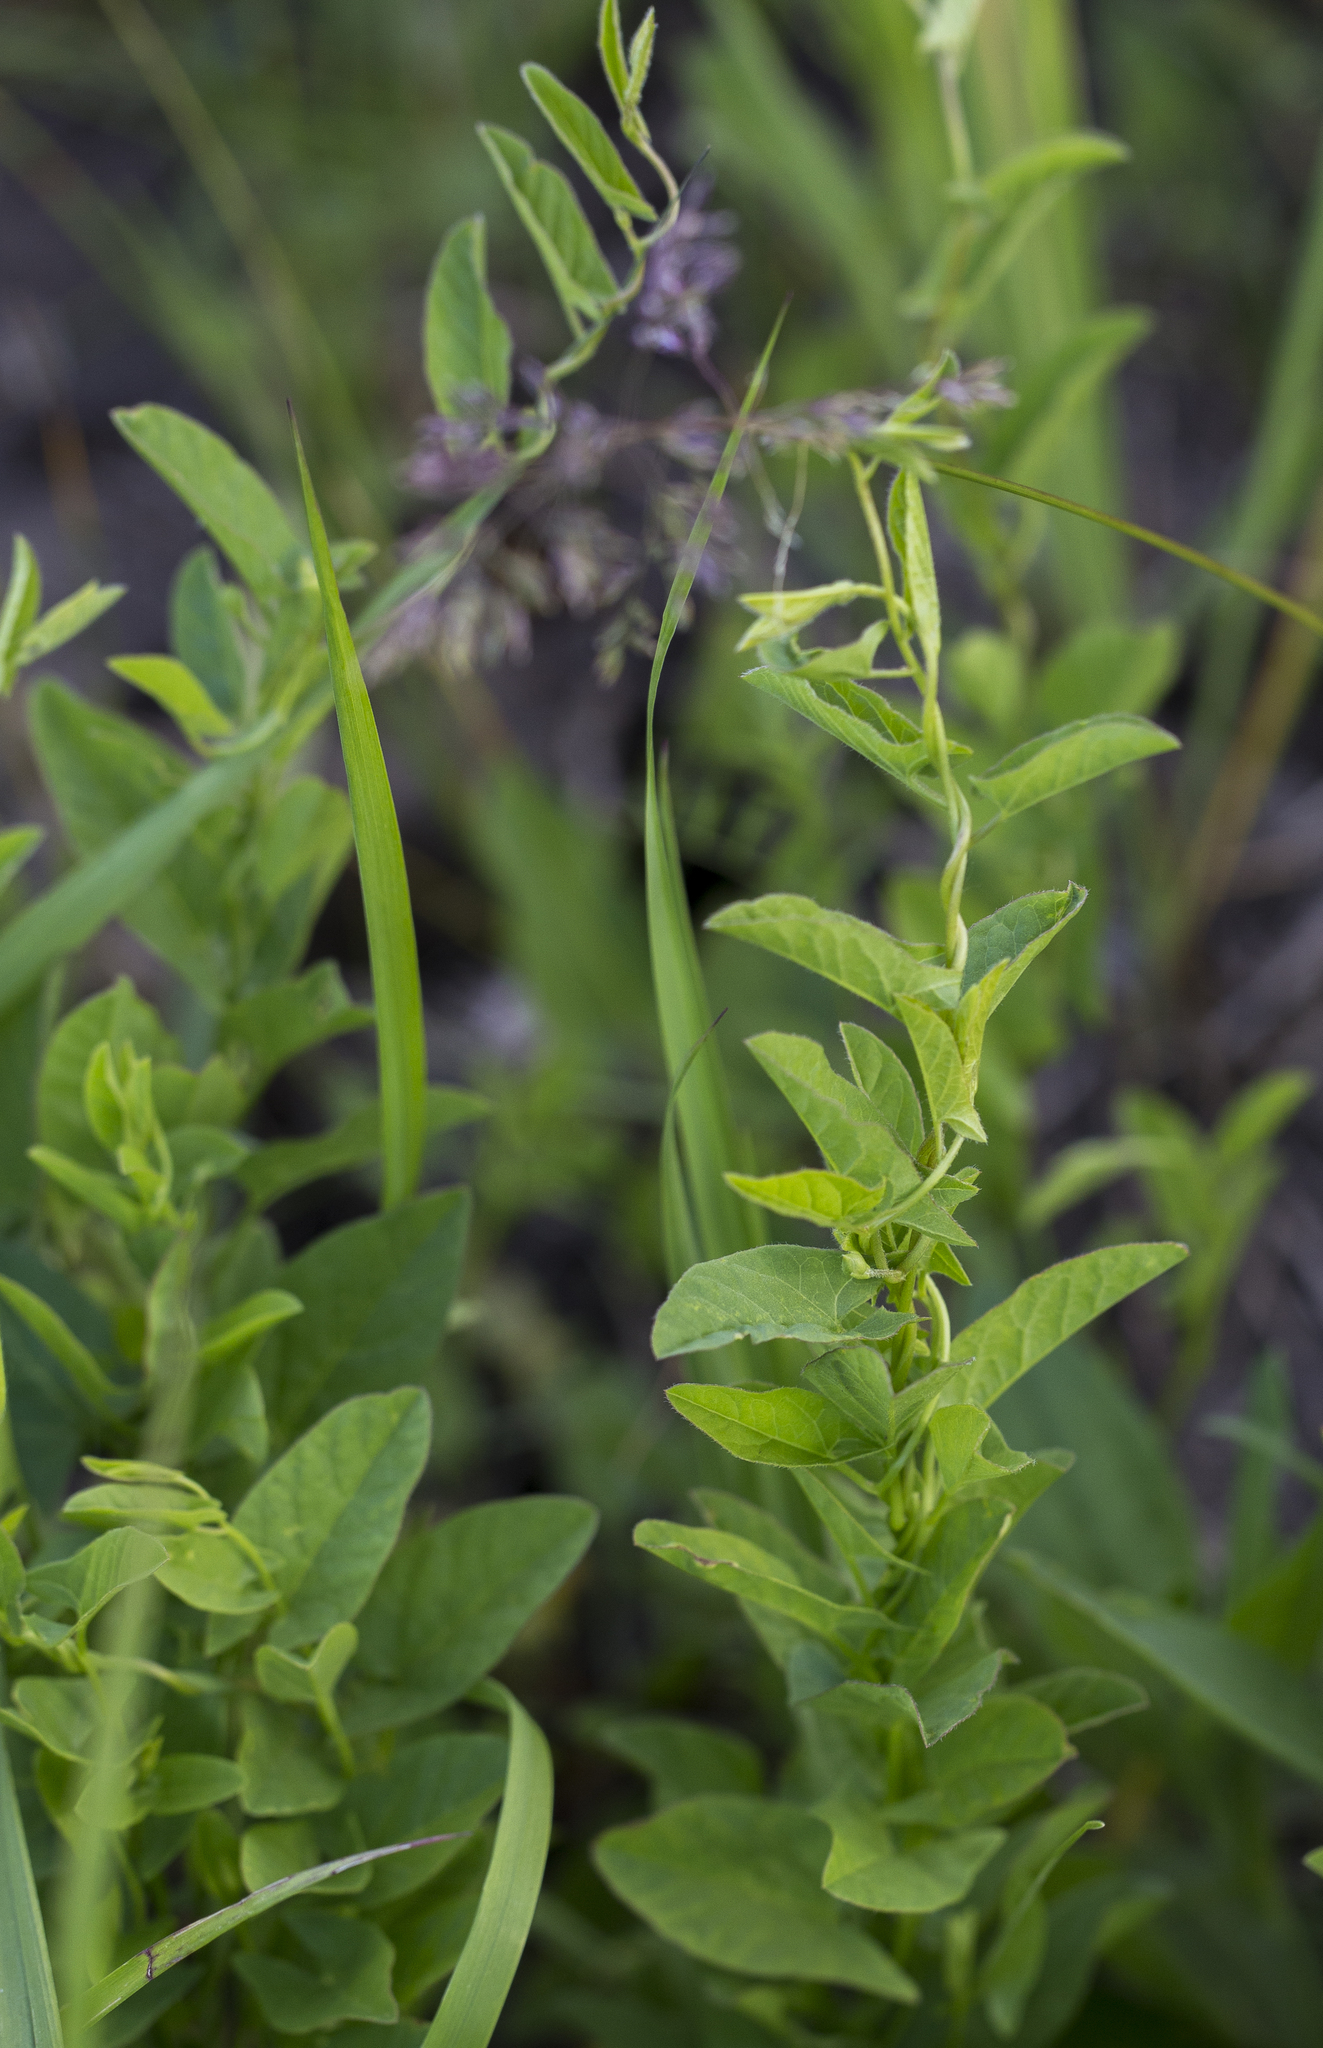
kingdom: Plantae
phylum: Tracheophyta
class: Magnoliopsida
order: Solanales
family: Convolvulaceae
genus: Convolvulus
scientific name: Convolvulus arvensis
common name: Field bindweed
